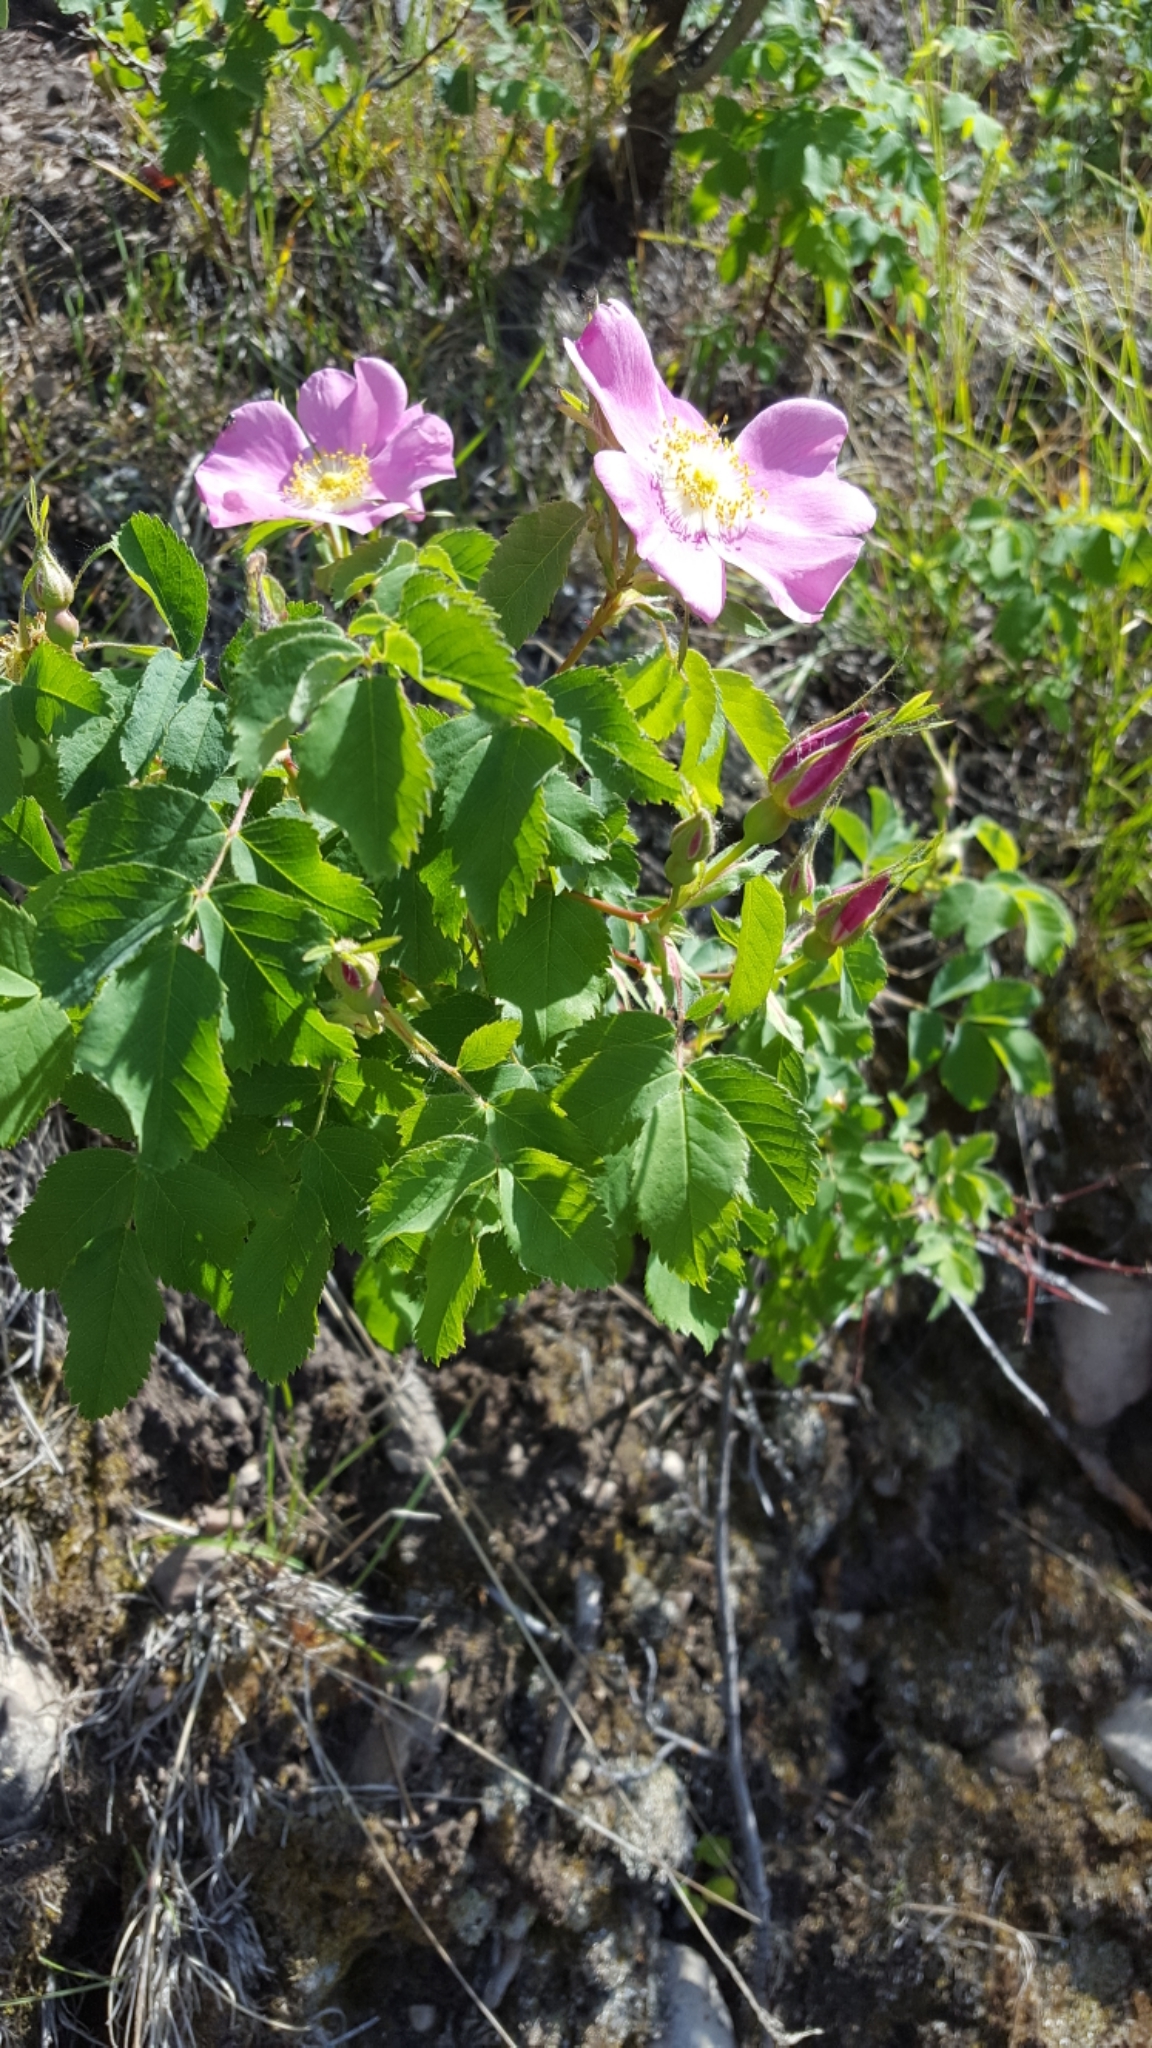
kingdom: Plantae
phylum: Tracheophyta
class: Magnoliopsida
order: Rosales
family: Rosaceae
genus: Rosa
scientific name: Rosa woodsii
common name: Woods's rose
